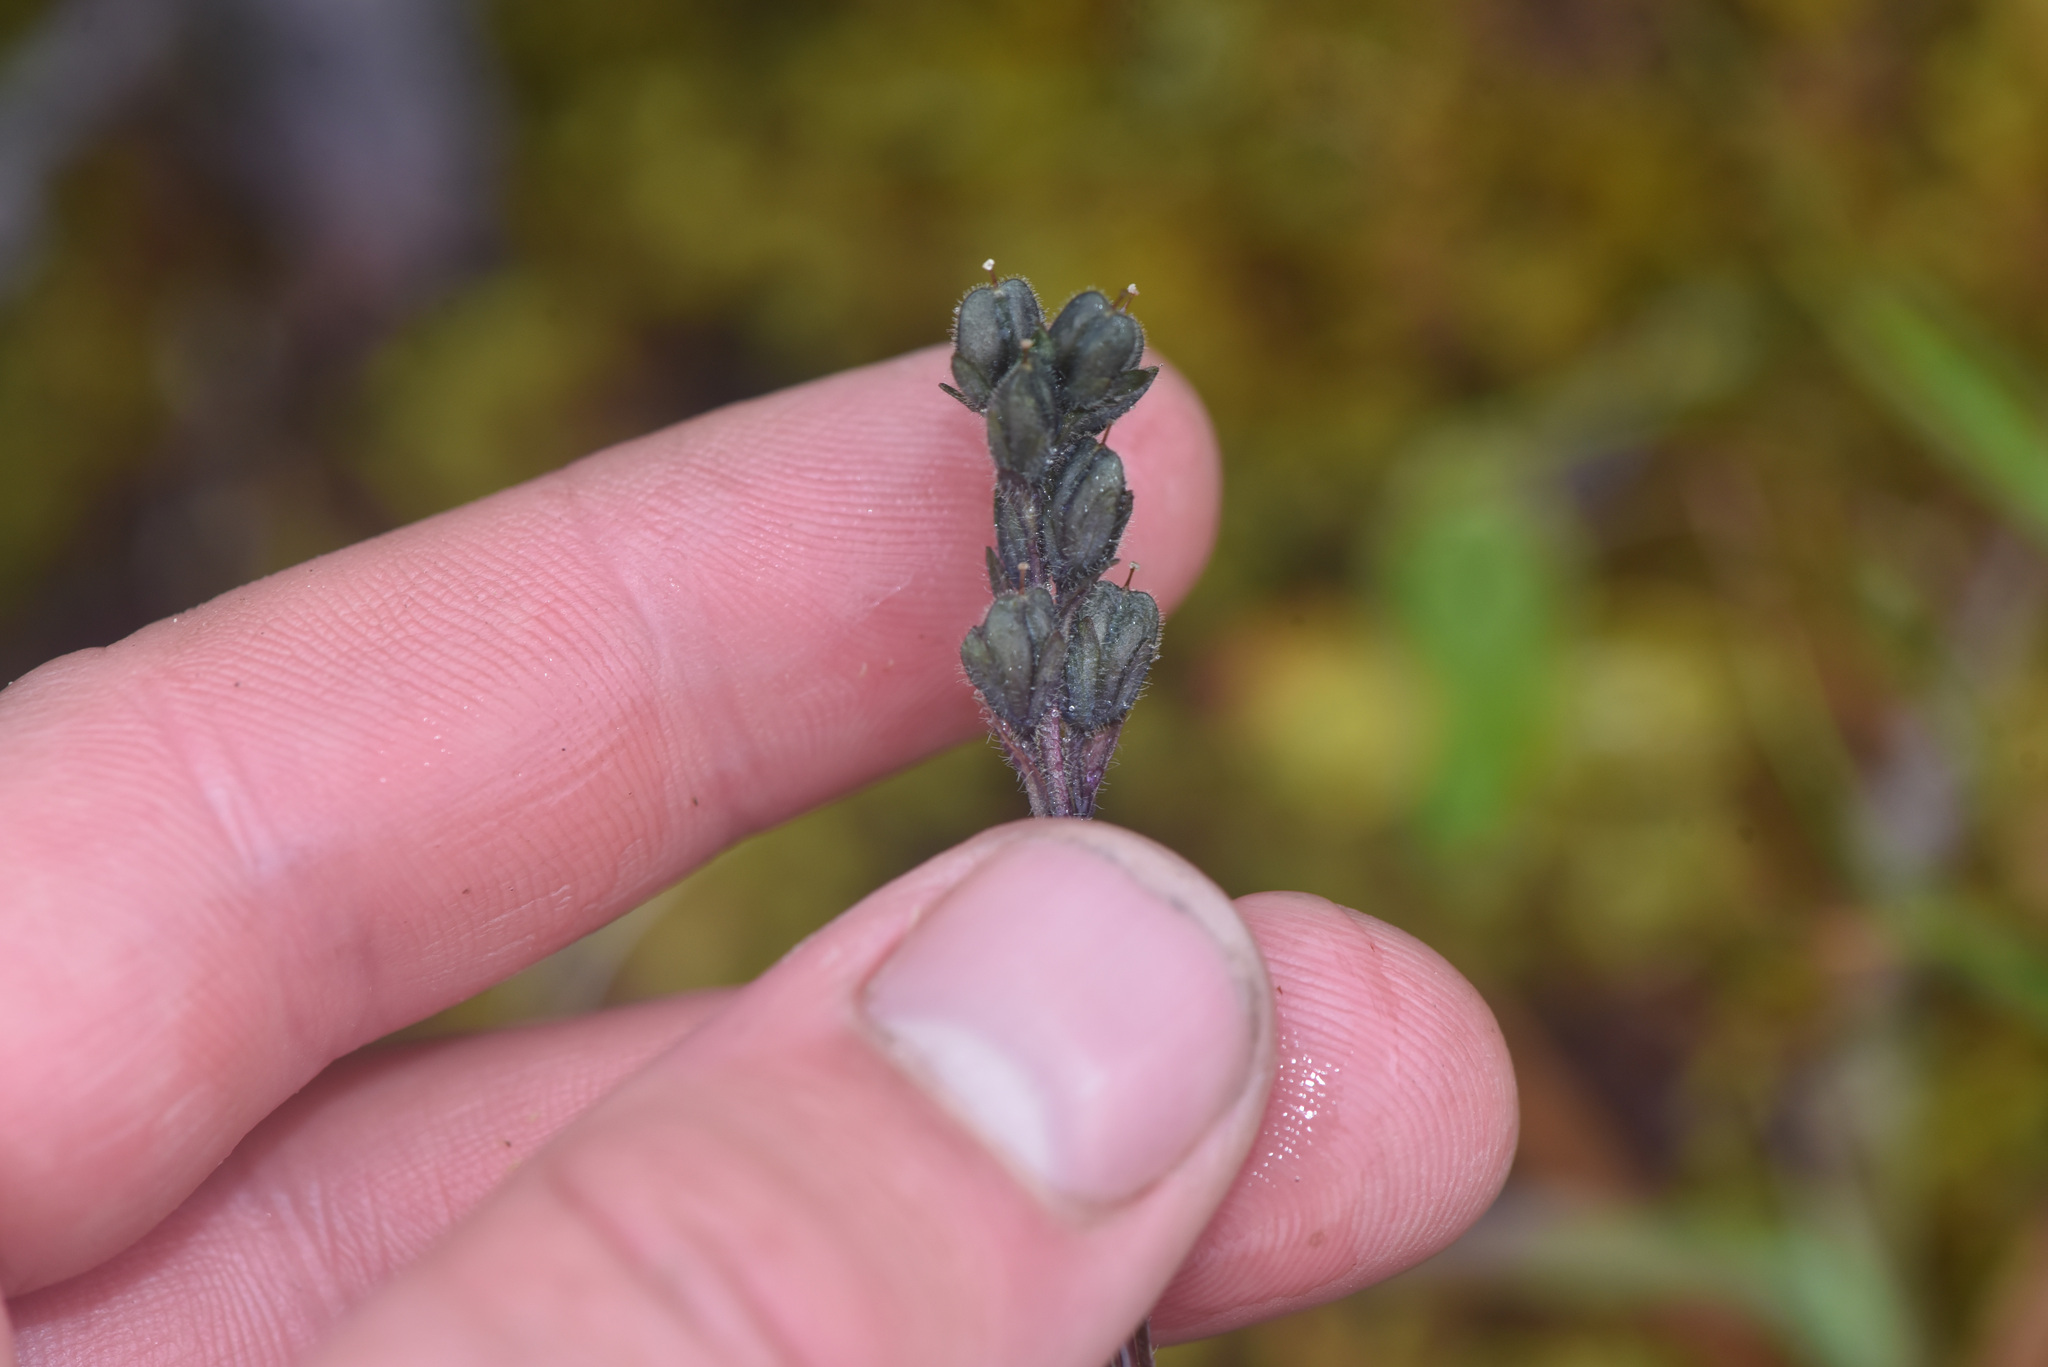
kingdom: Plantae
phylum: Tracheophyta
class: Magnoliopsida
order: Lamiales
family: Plantaginaceae
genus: Veronica
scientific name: Veronica wormskjoldii
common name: American alpine speedwell
